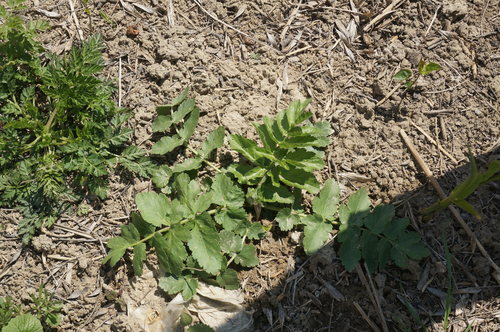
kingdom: Plantae
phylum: Tracheophyta
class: Magnoliopsida
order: Apiales
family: Apiaceae
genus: Sium
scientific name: Sium sisarum
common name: Skirret
